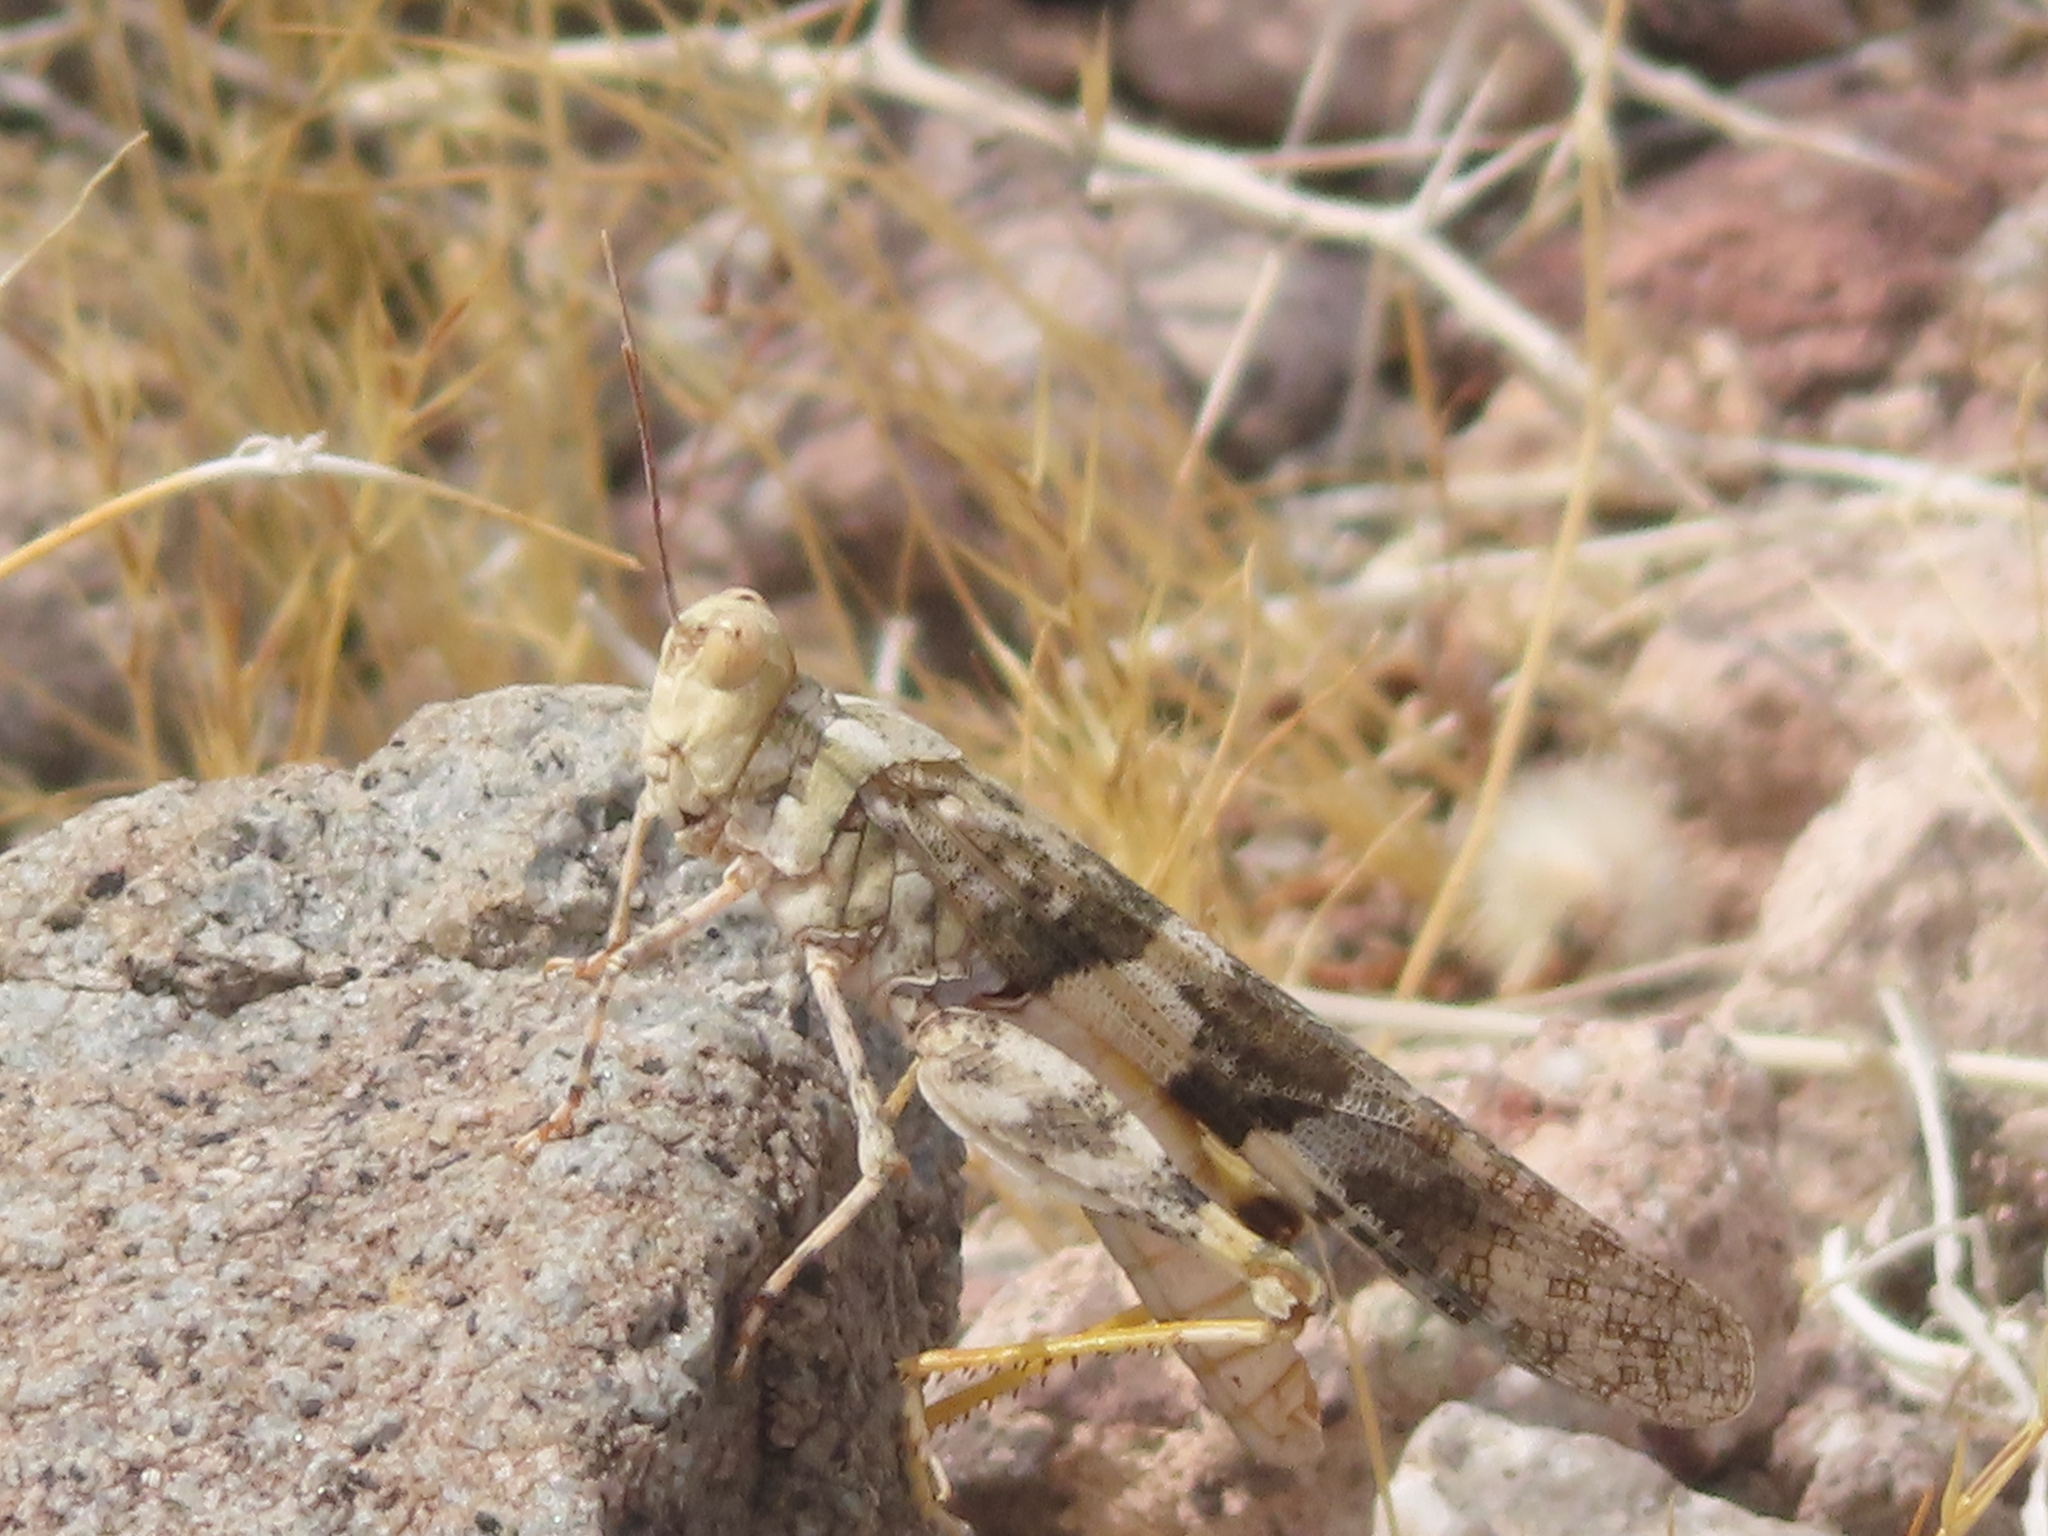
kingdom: Animalia
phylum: Arthropoda
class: Insecta
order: Orthoptera
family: Acrididae
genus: Trimerotropis
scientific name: Trimerotropis pallidipennis
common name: Pallid-winged grasshopper
